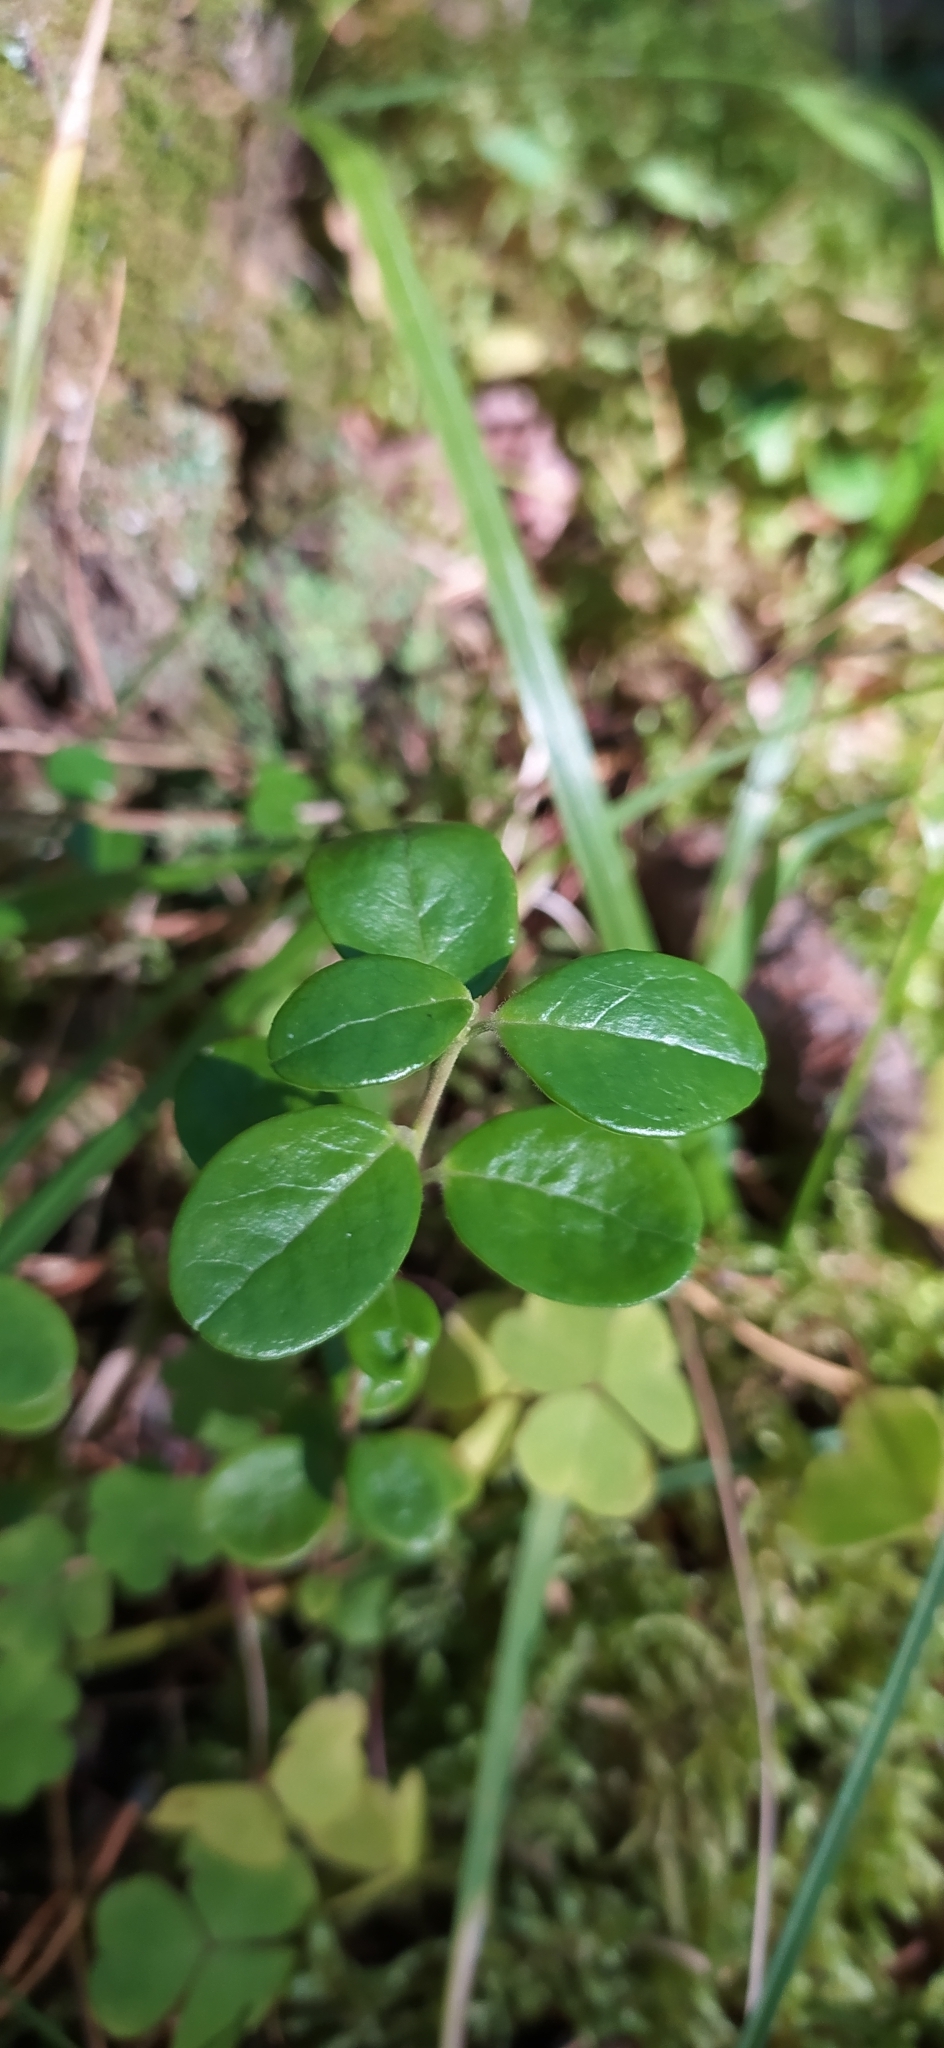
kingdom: Plantae
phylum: Tracheophyta
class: Magnoliopsida
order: Ericales
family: Ericaceae
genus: Vaccinium
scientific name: Vaccinium vitis-idaea
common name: Cowberry
